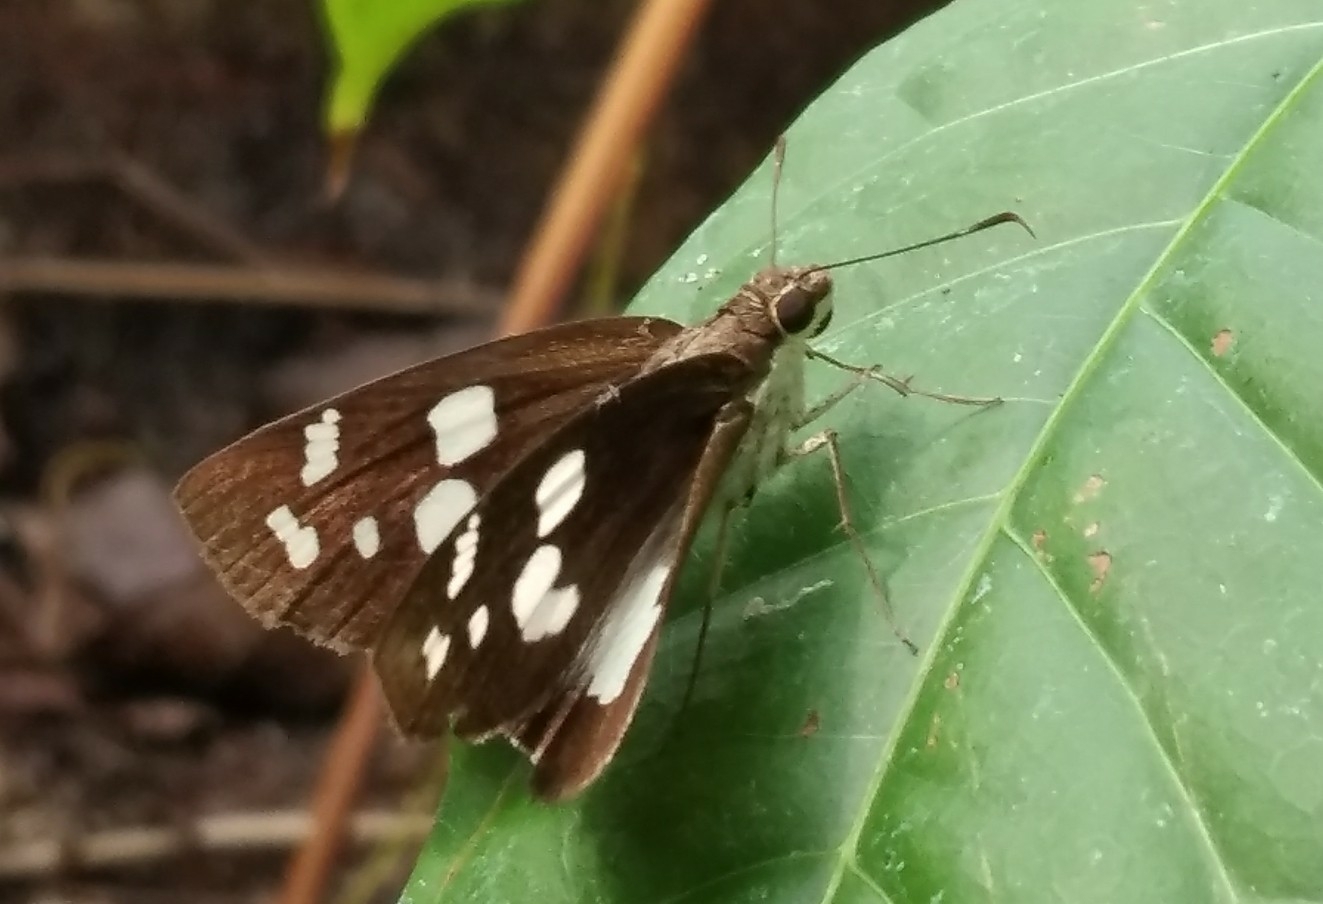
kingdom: Animalia
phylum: Arthropoda
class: Insecta
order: Lepidoptera
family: Hesperiidae
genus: Udaspes
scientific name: Udaspes folus
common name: Grass demon
